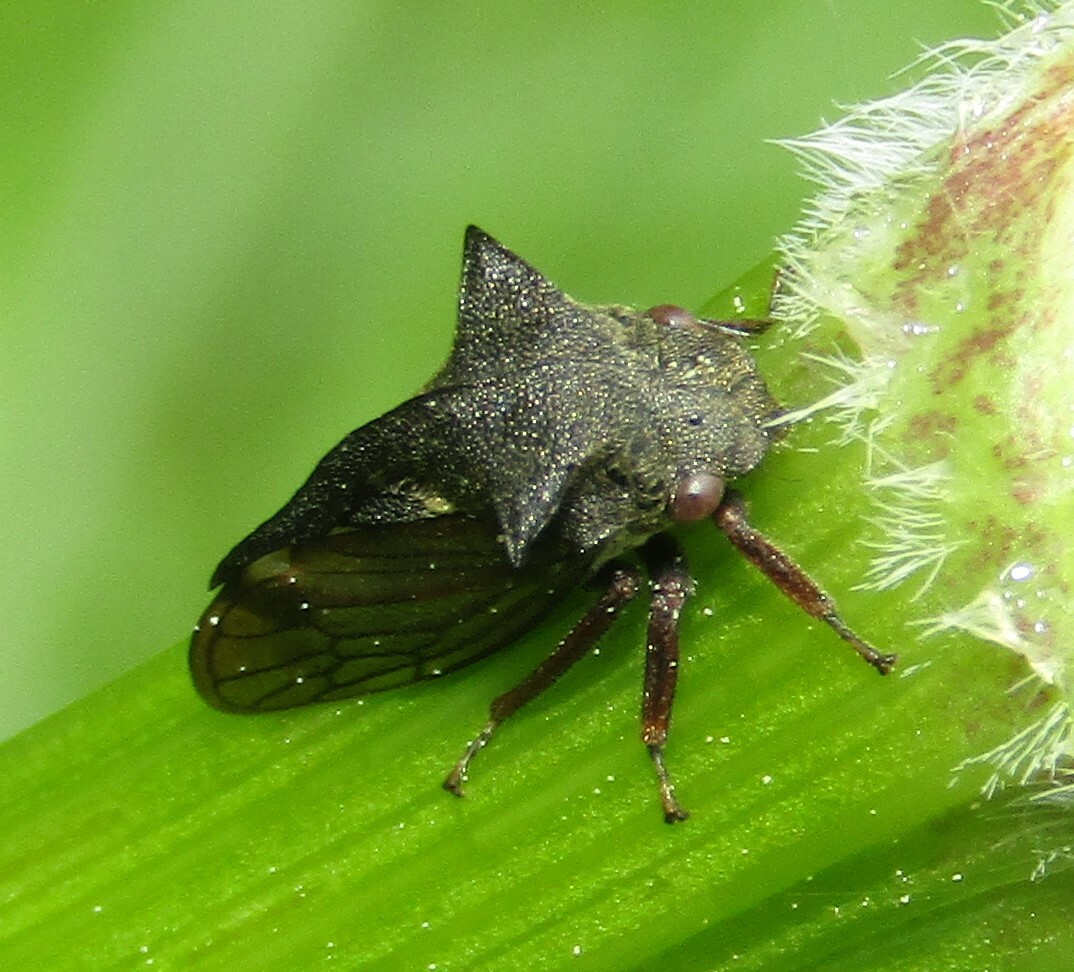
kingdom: Animalia
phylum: Arthropoda
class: Insecta
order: Hemiptera
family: Membracidae
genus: Centrotus
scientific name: Centrotus cornuta
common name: Treehopper
